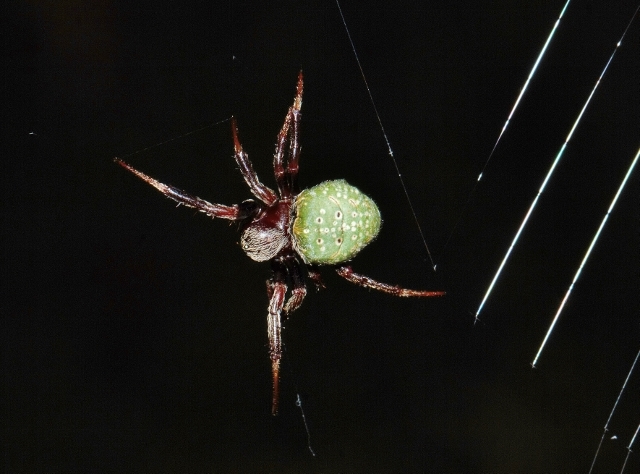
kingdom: Animalia
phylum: Arthropoda
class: Arachnida
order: Araneae
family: Araneidae
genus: Araneus
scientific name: Araneus apricus
